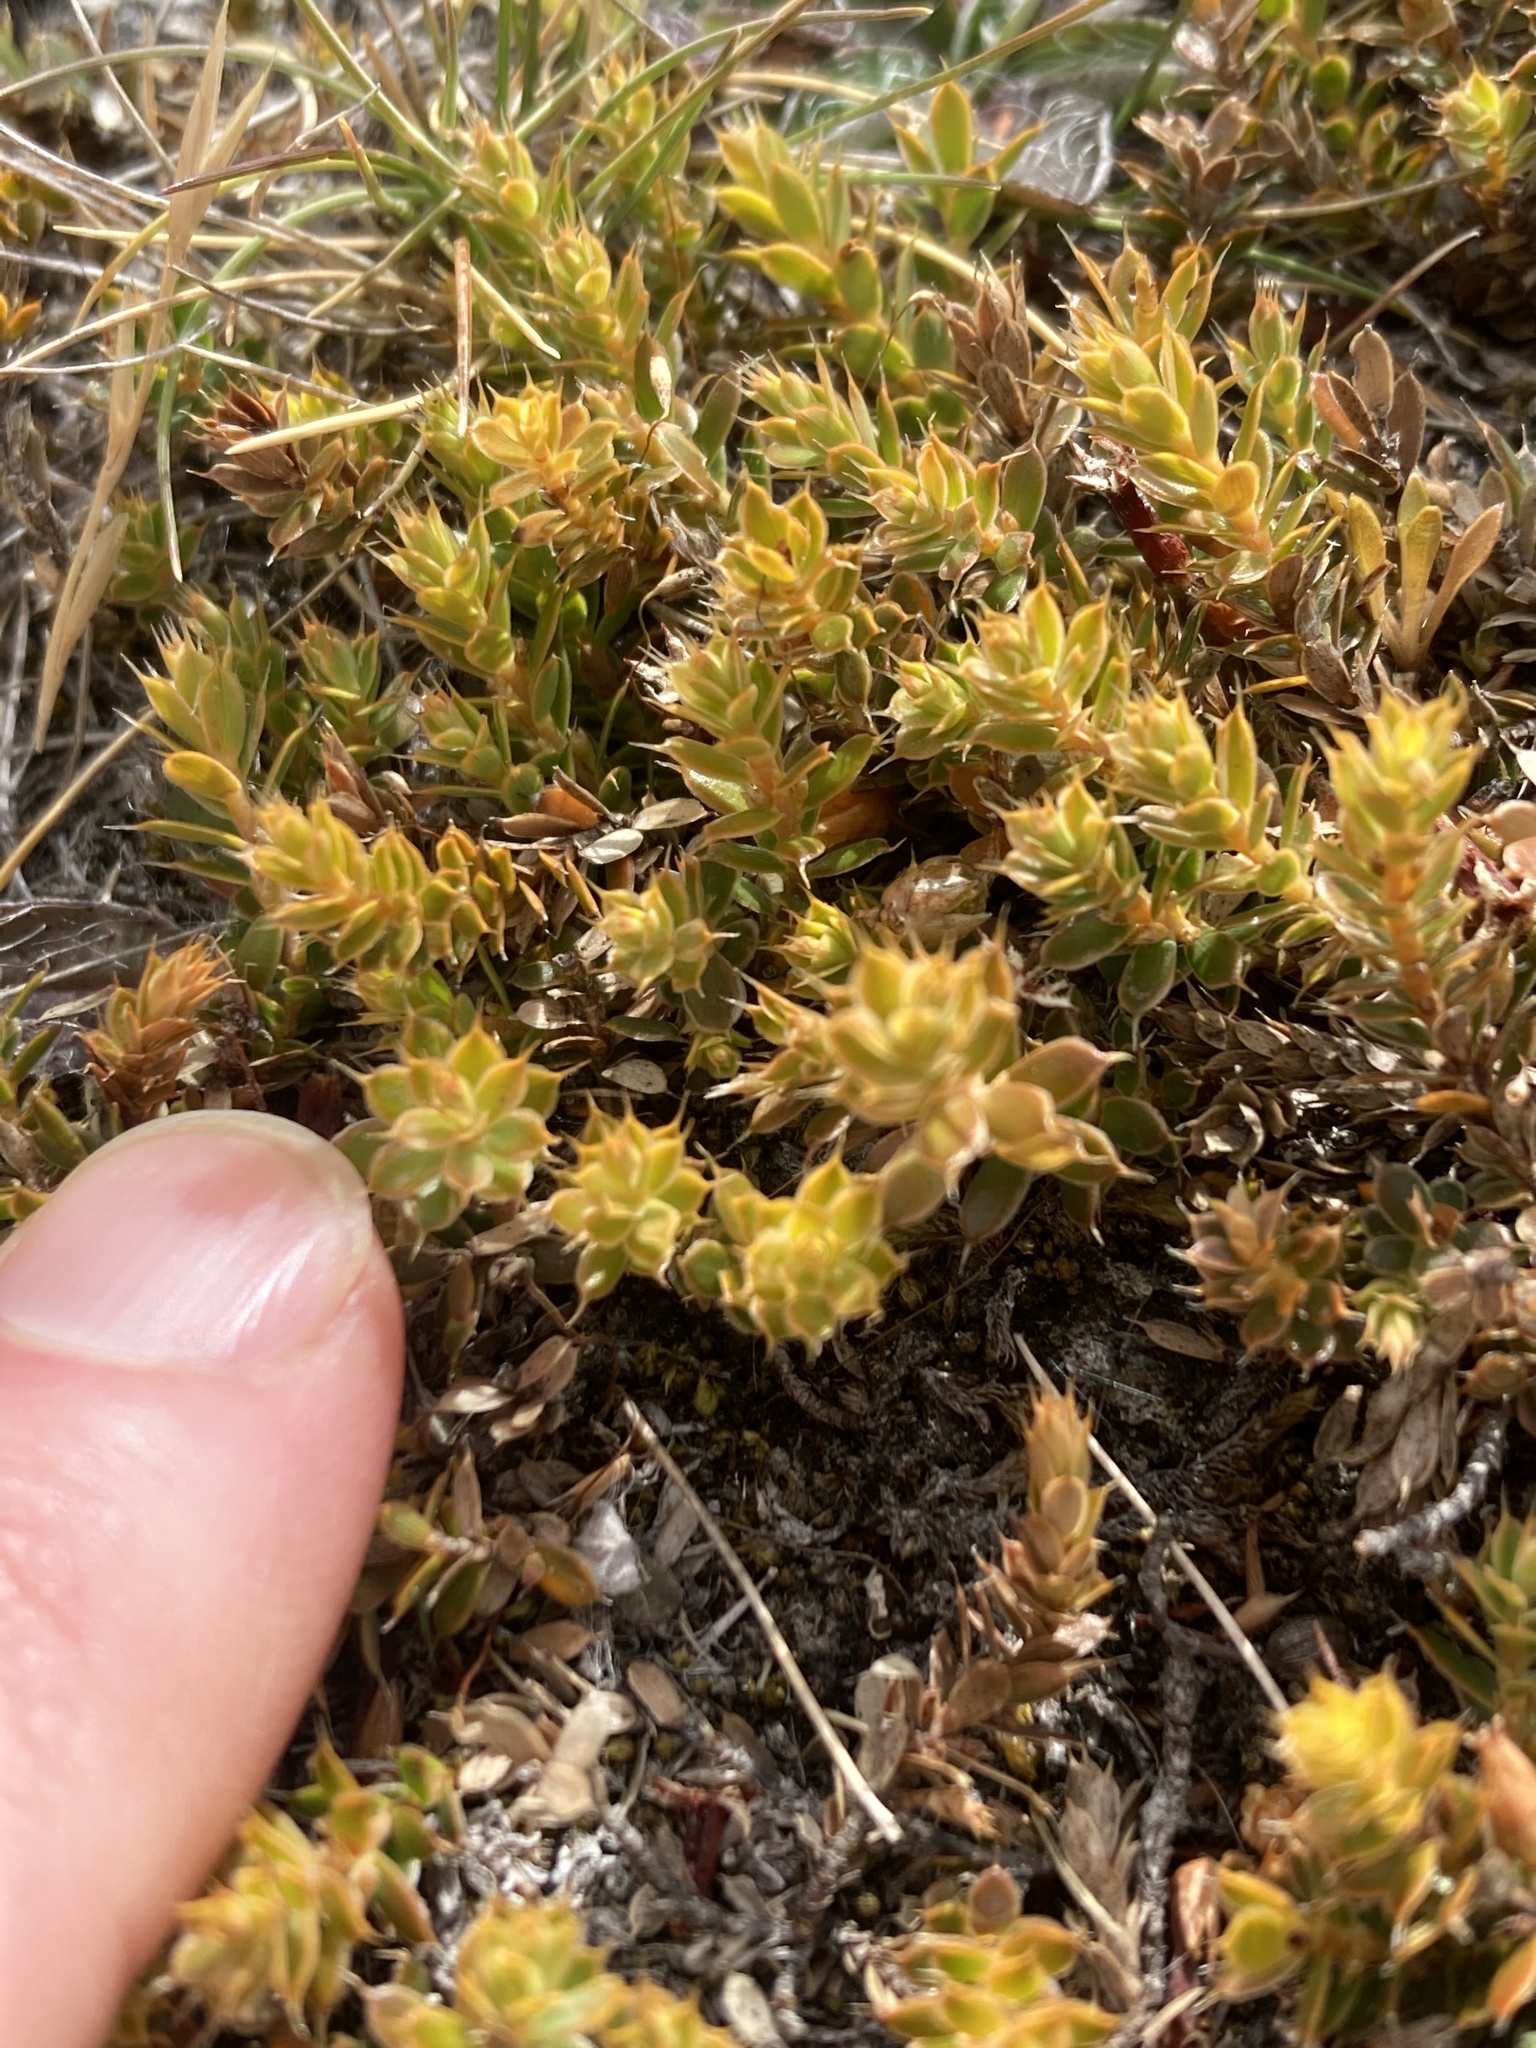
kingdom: Plantae
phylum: Tracheophyta
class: Magnoliopsida
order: Ericales
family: Ericaceae
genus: Styphelia
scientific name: Styphelia nesophila
